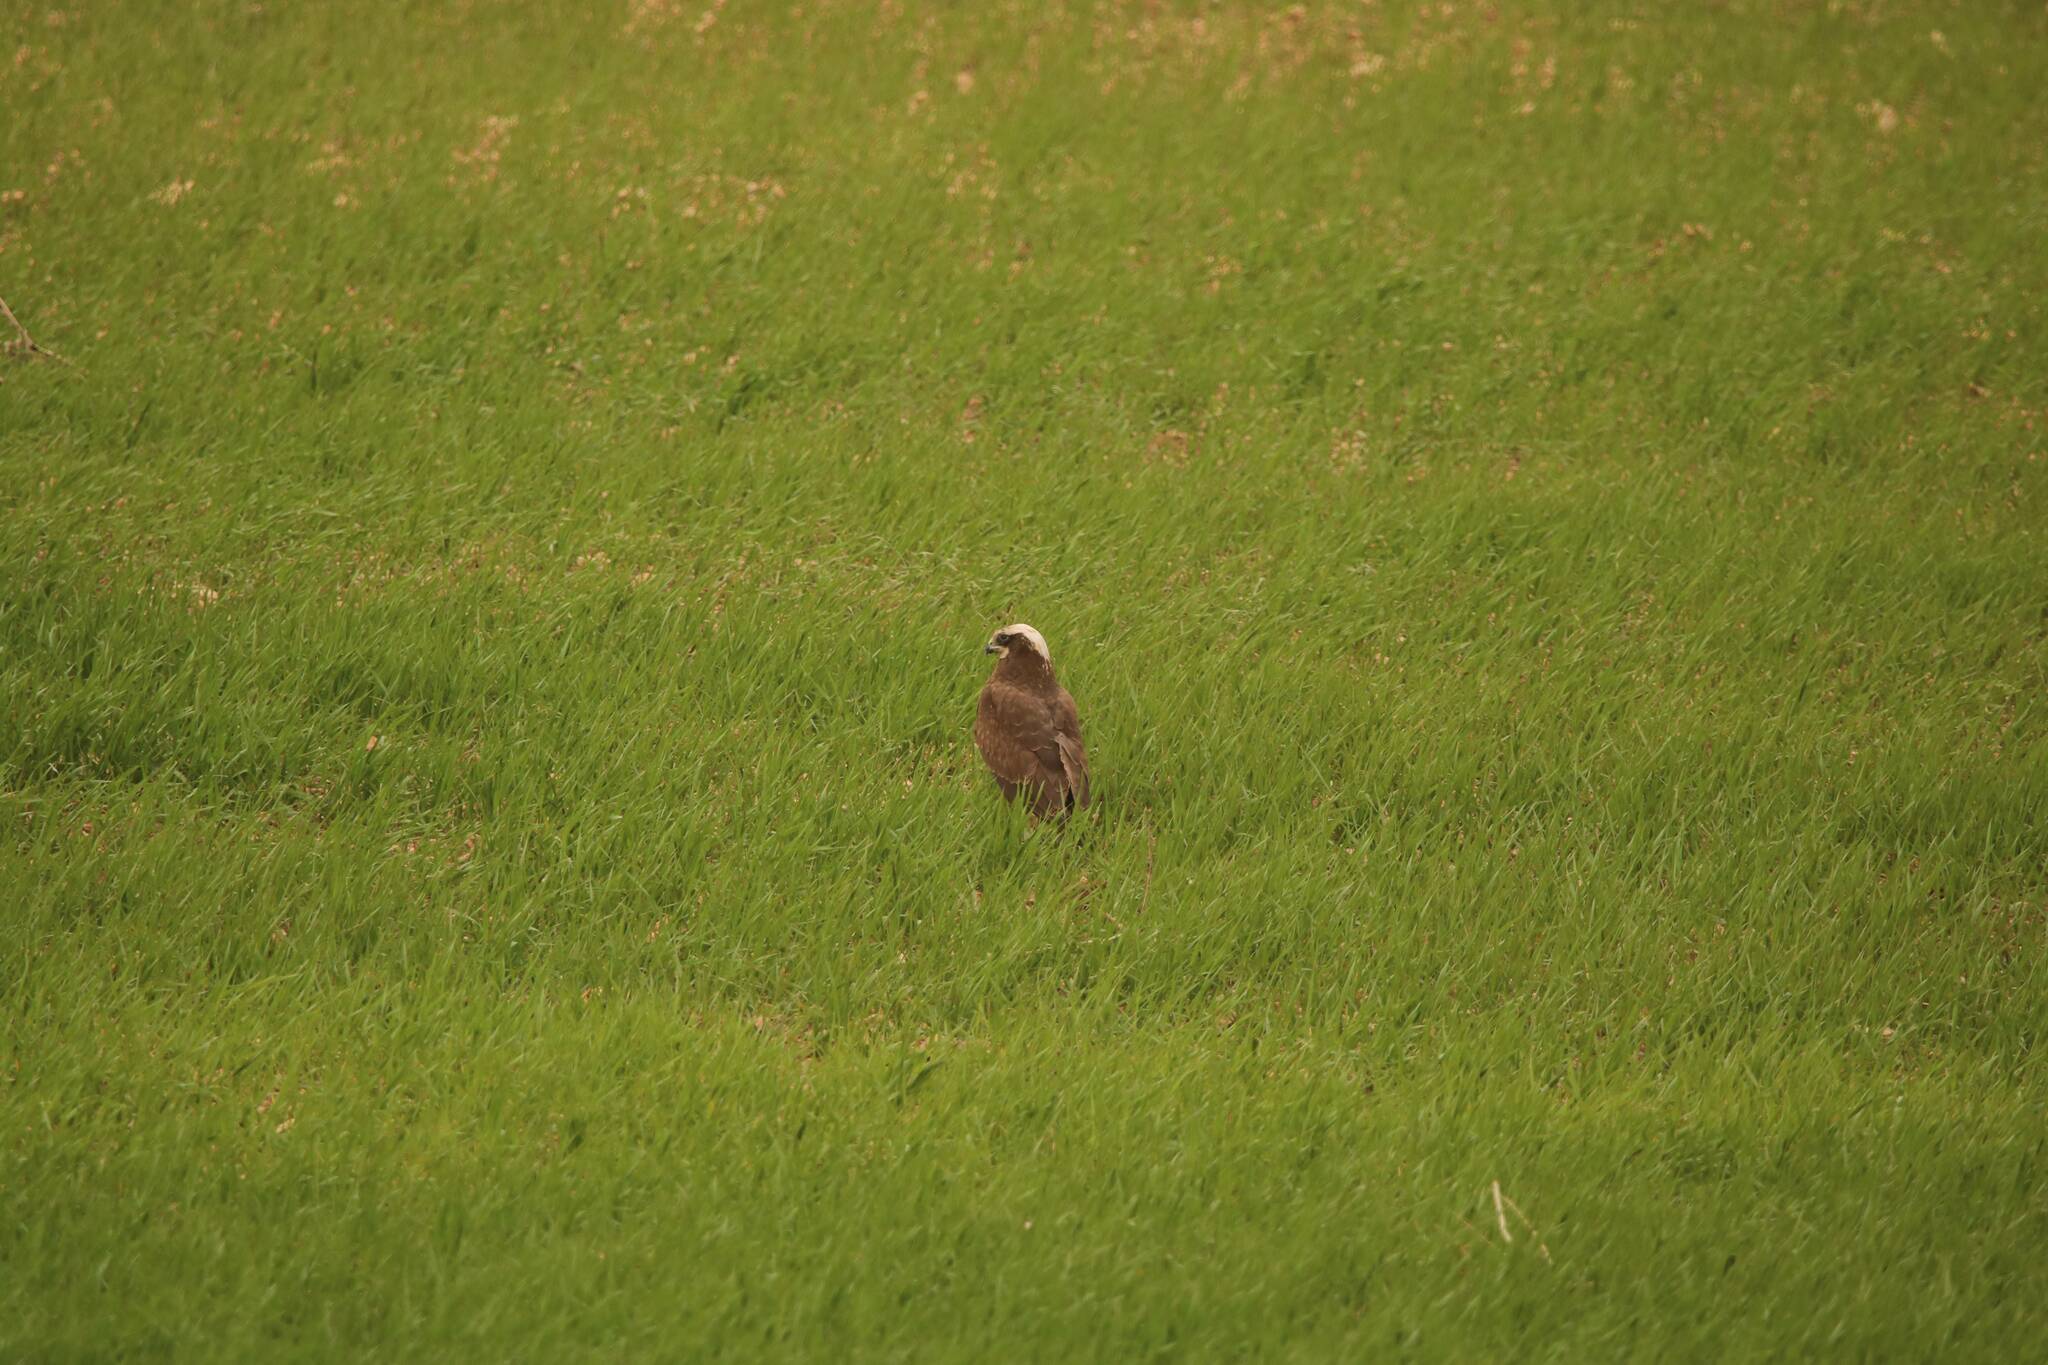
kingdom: Animalia
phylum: Chordata
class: Aves
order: Accipitriformes
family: Accipitridae
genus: Circus
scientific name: Circus aeruginosus
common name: Western marsh harrier
